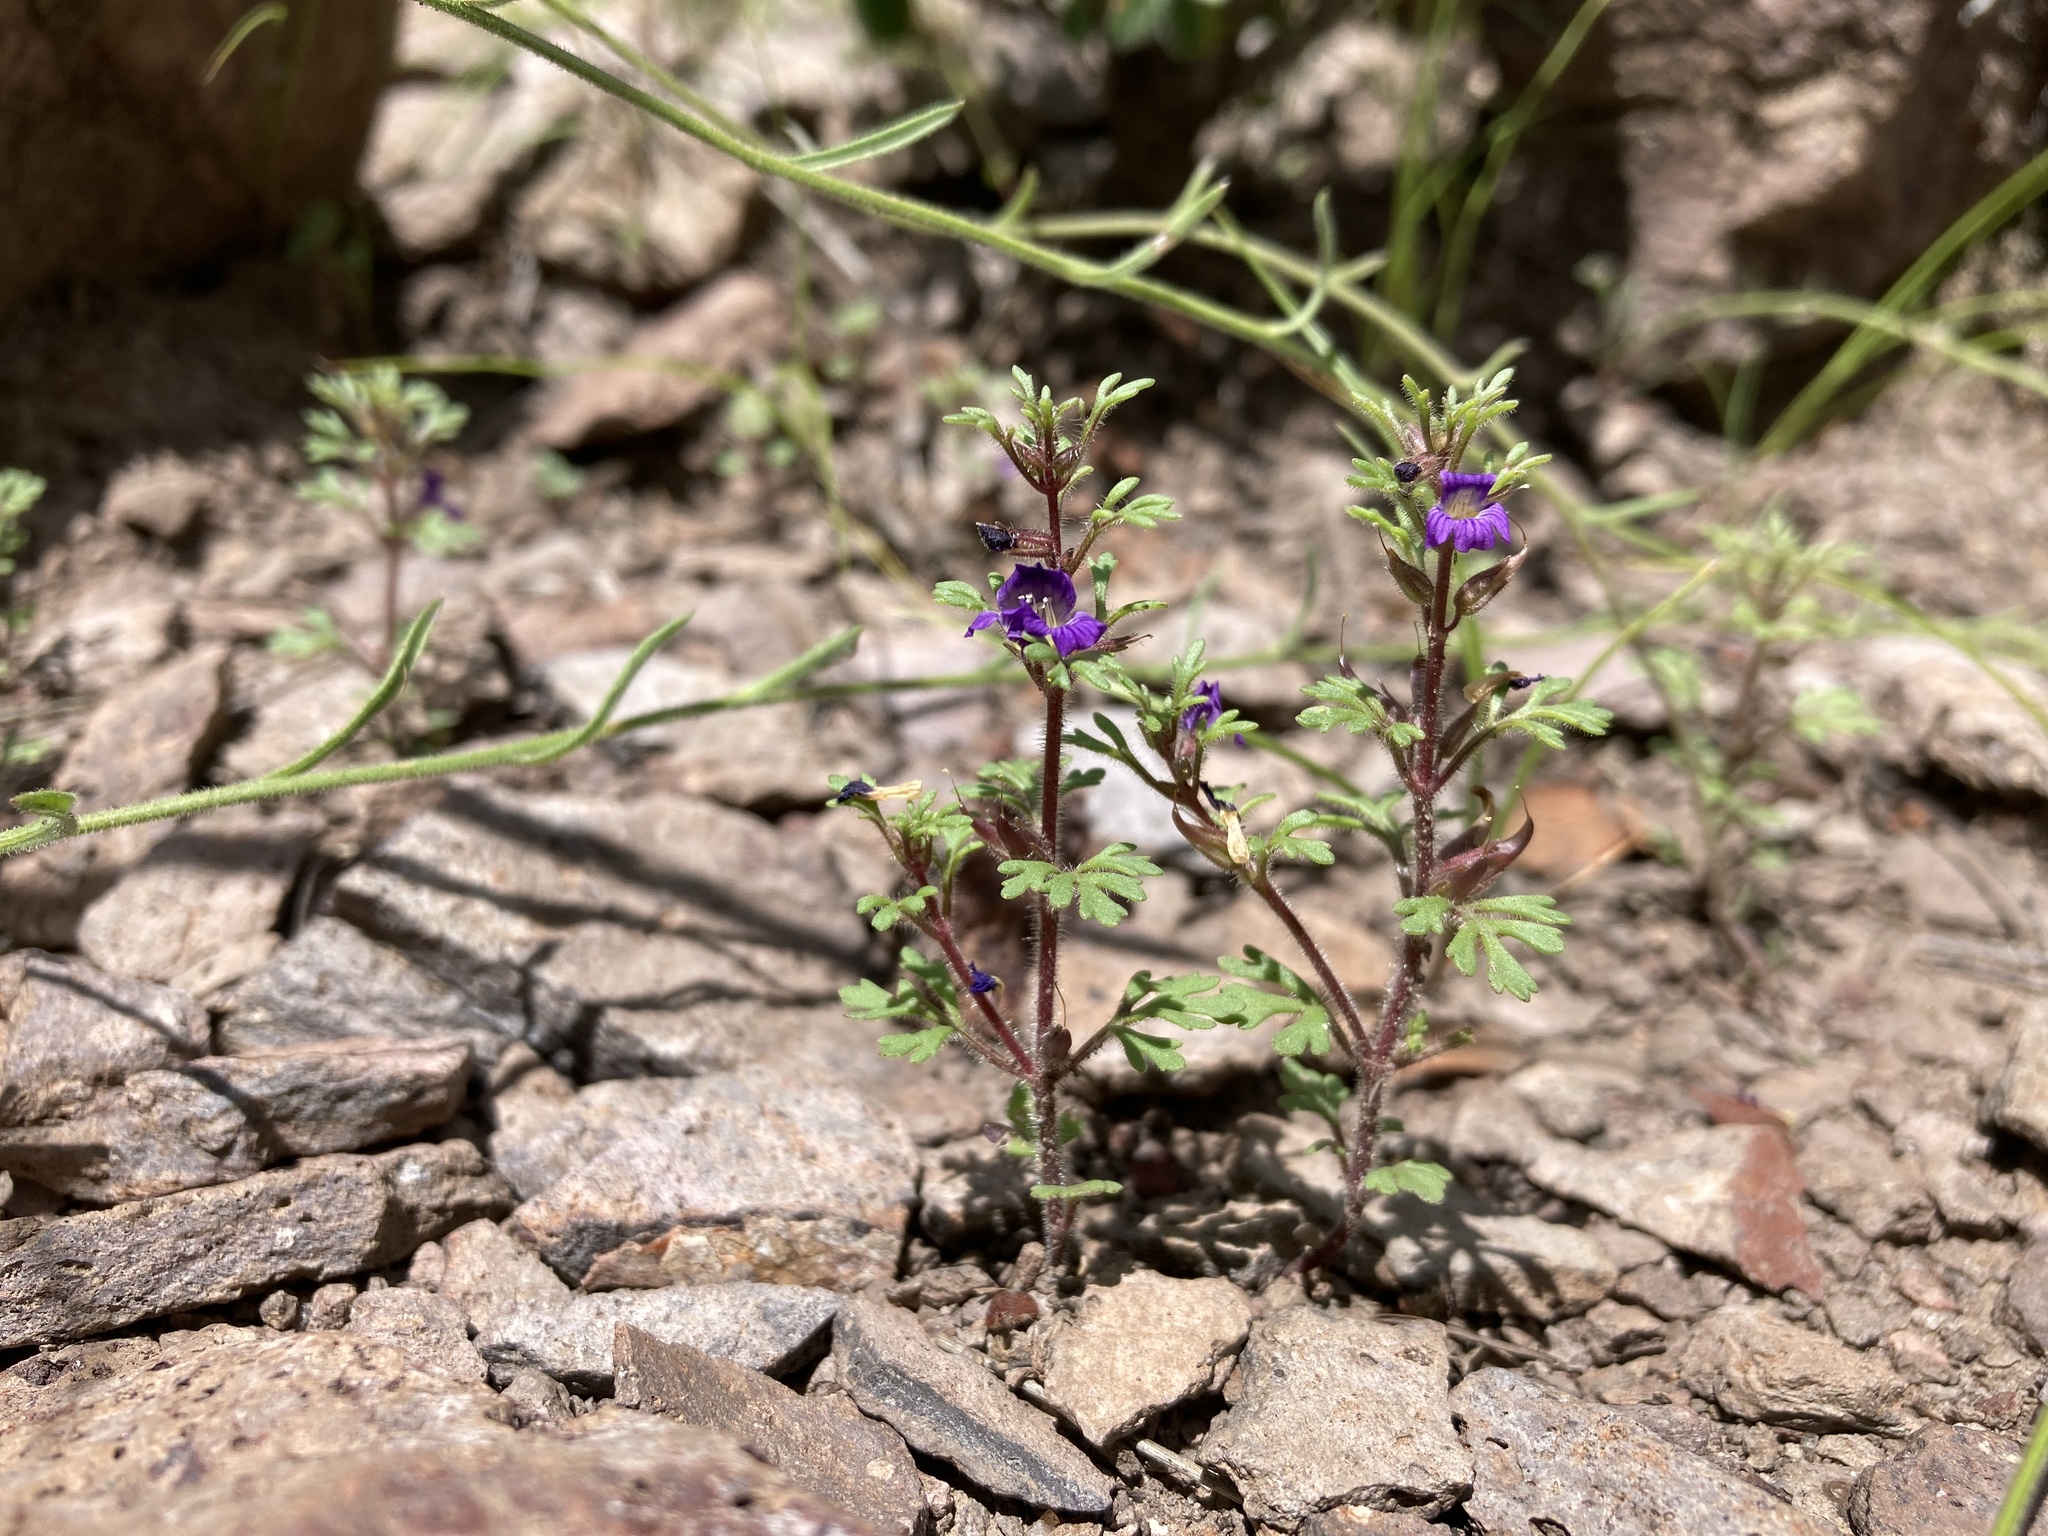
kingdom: Plantae
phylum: Tracheophyta
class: Magnoliopsida
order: Lamiales
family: Plantaginaceae
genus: Schistophragma
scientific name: Schistophragma intermedium
